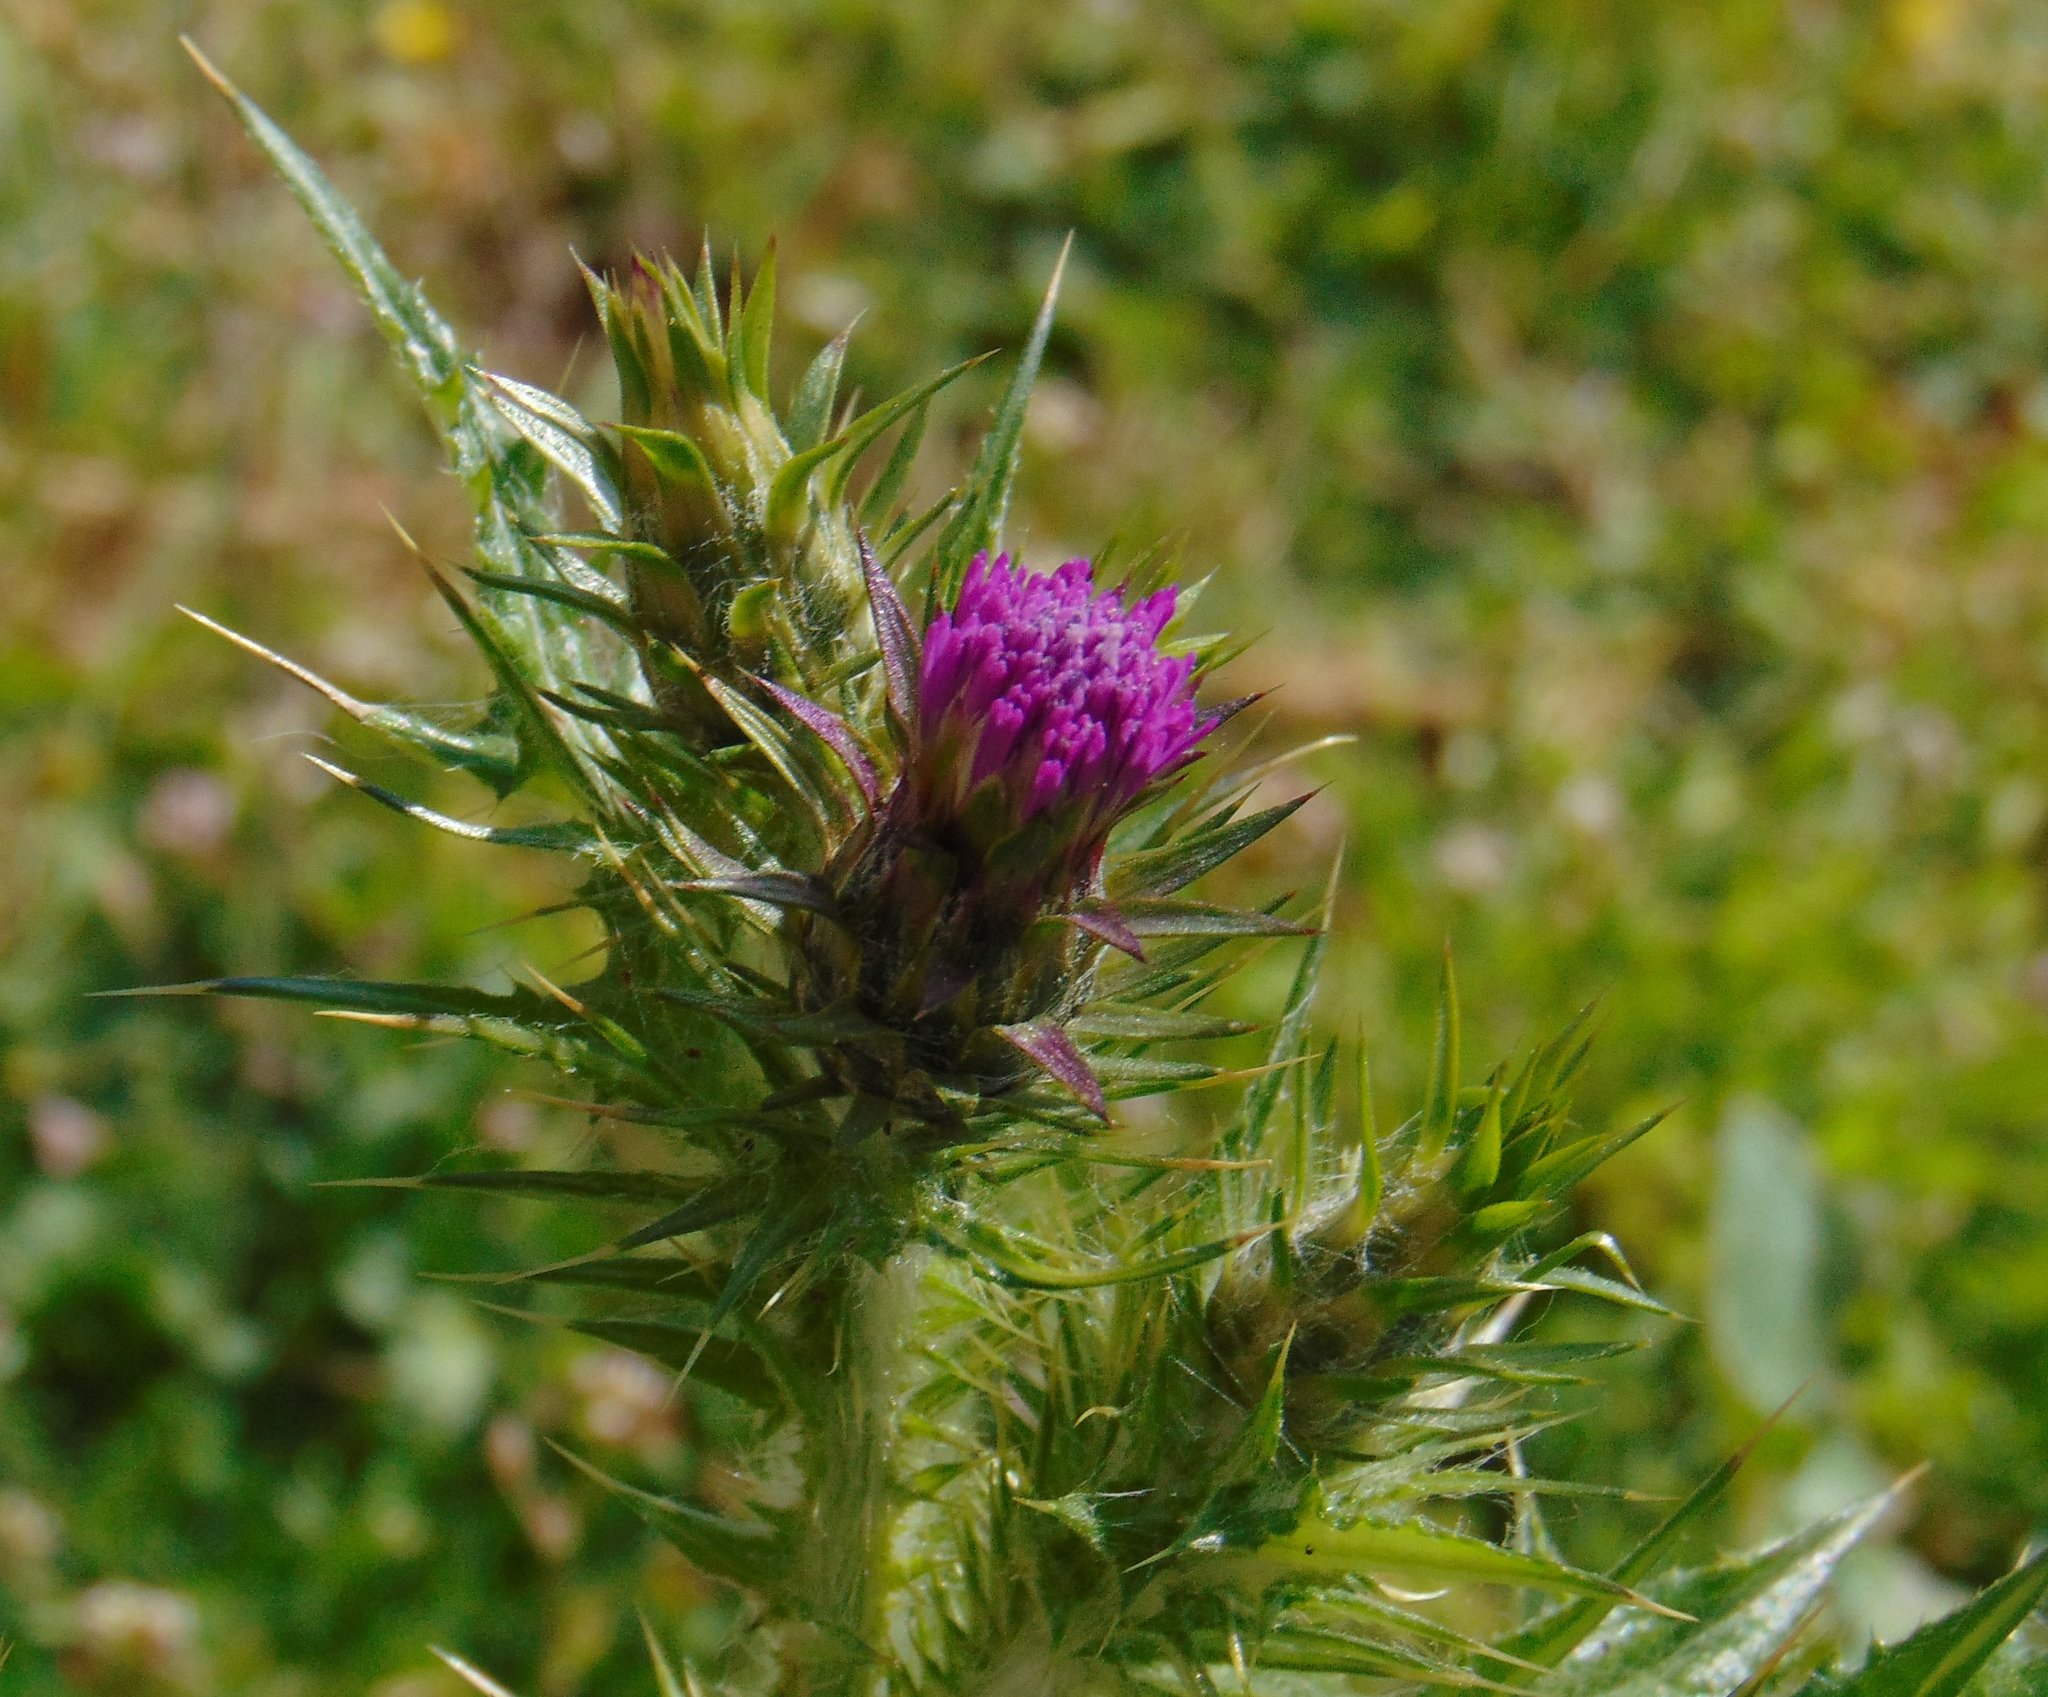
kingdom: Plantae
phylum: Tracheophyta
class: Magnoliopsida
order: Asterales
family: Asteraceae
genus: Carduus
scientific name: Carduus pycnocephalus
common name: Plymouth thistle
